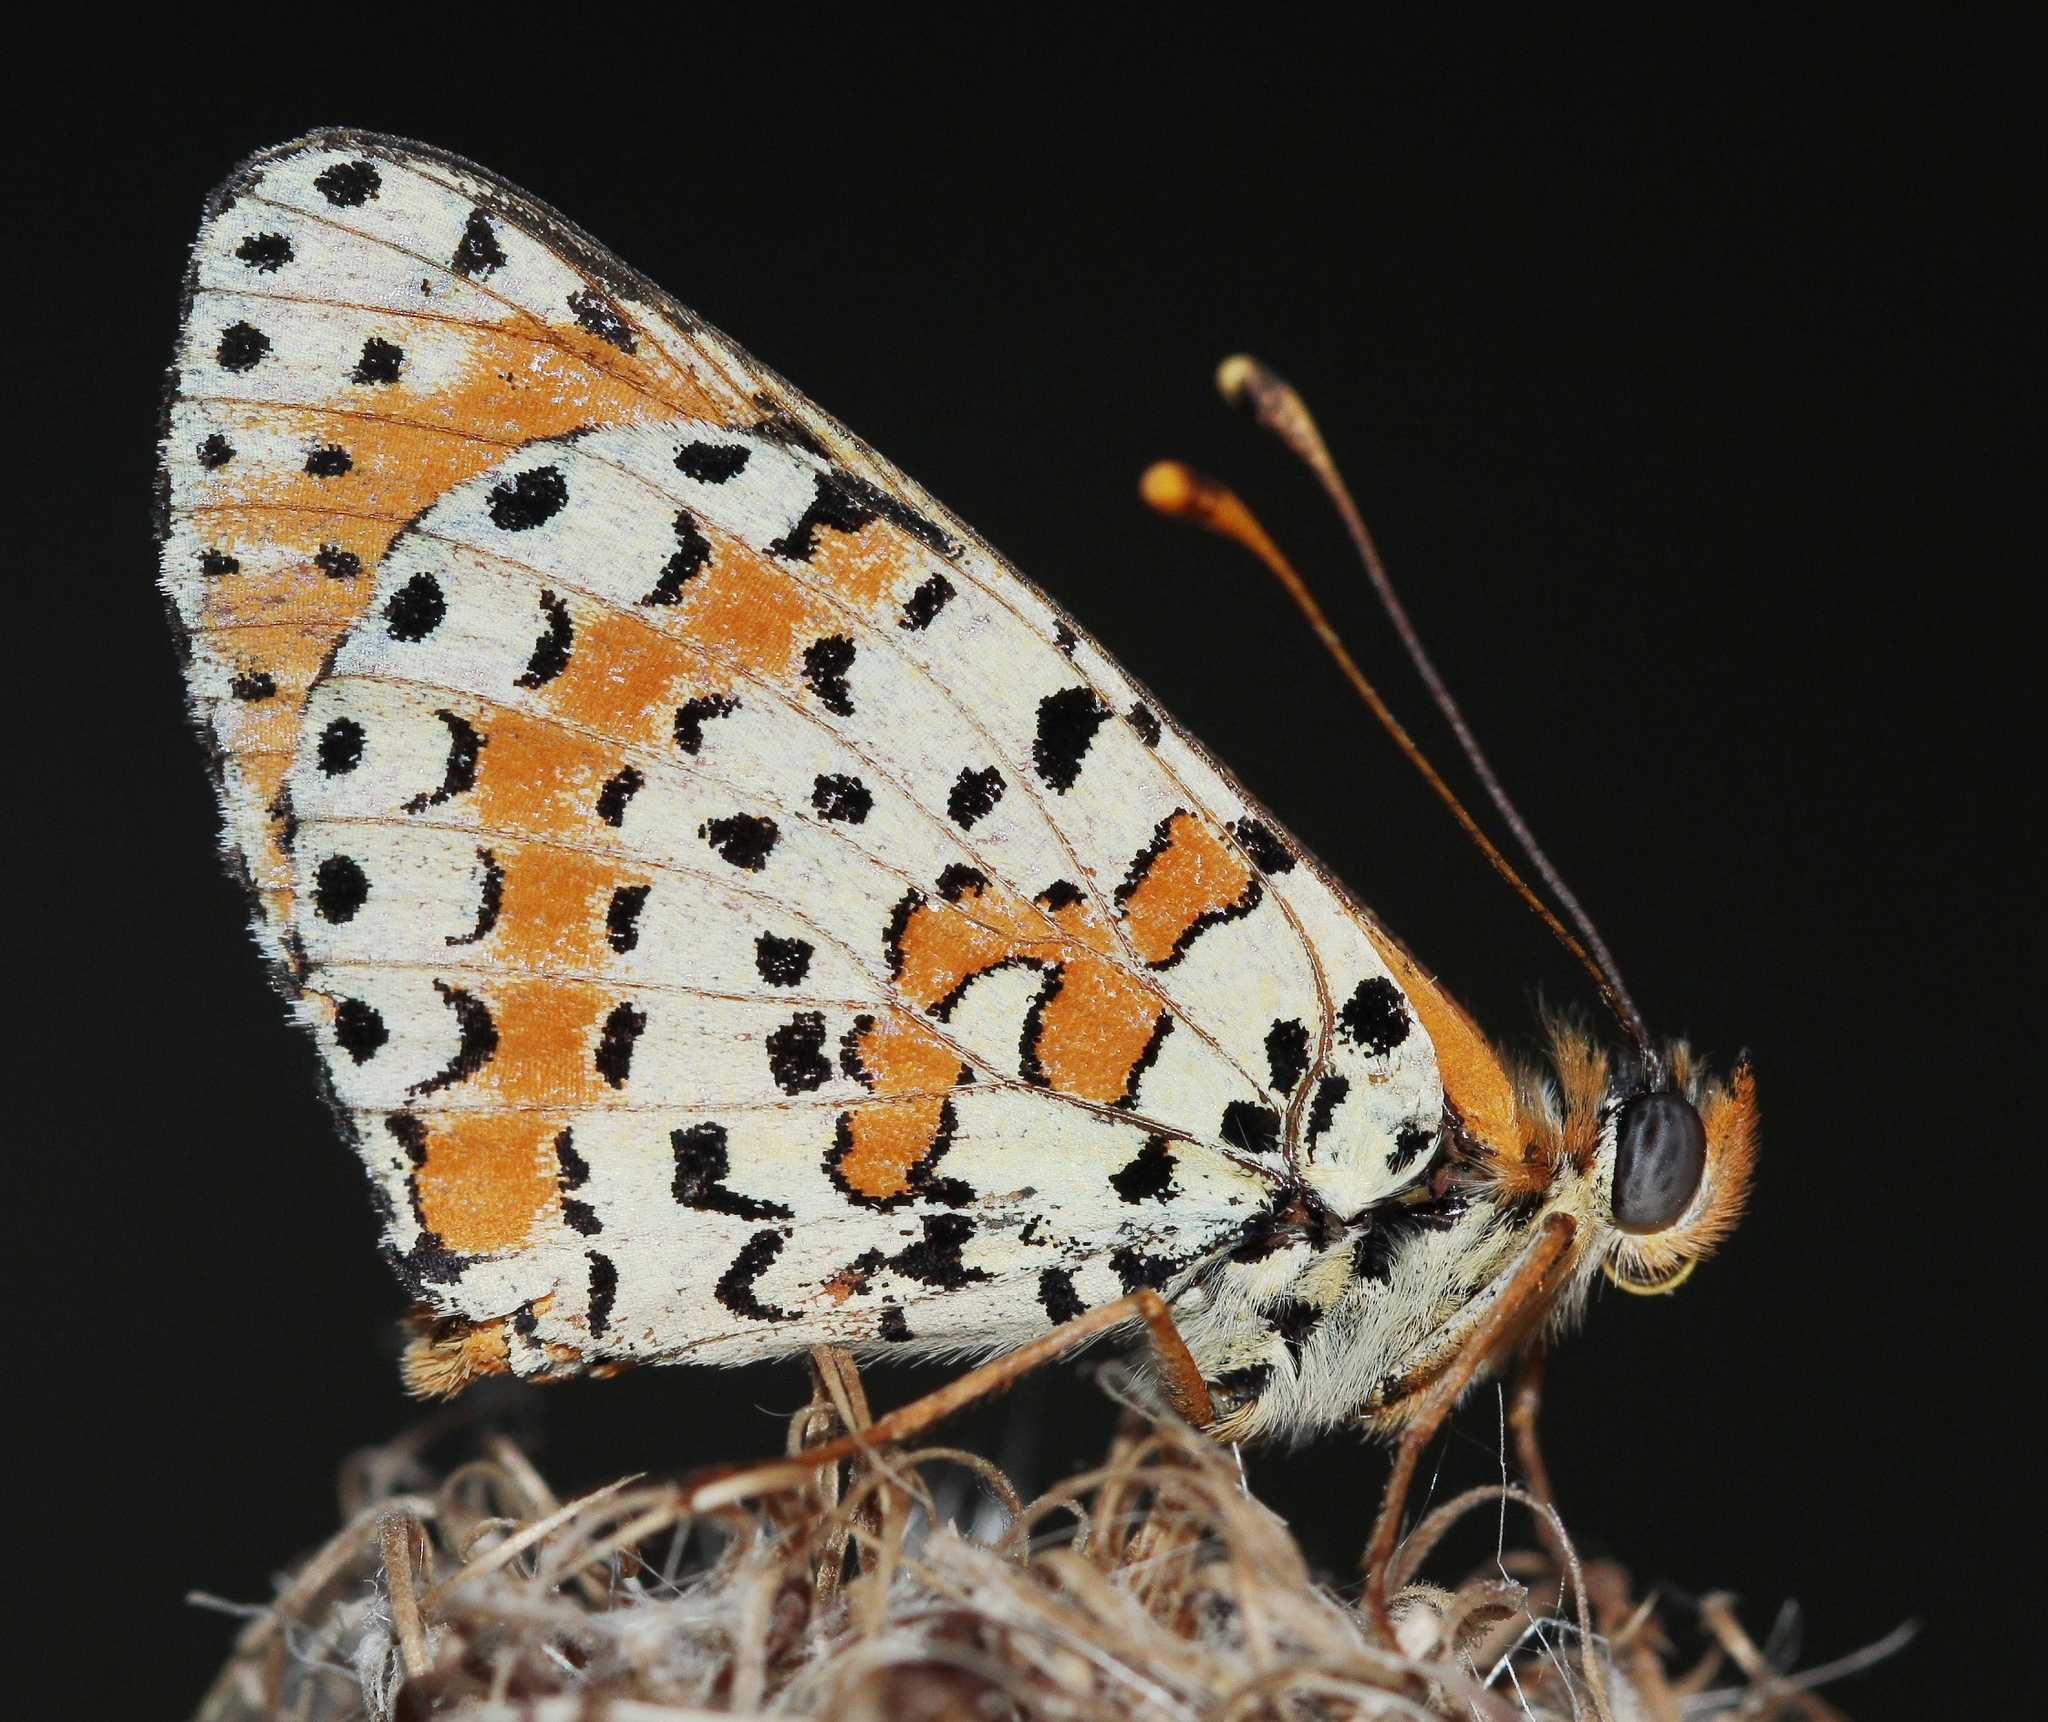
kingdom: Animalia
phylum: Arthropoda
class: Insecta
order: Lepidoptera
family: Nymphalidae
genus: Melitaea
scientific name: Melitaea didyma
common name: Spotted fritillary
